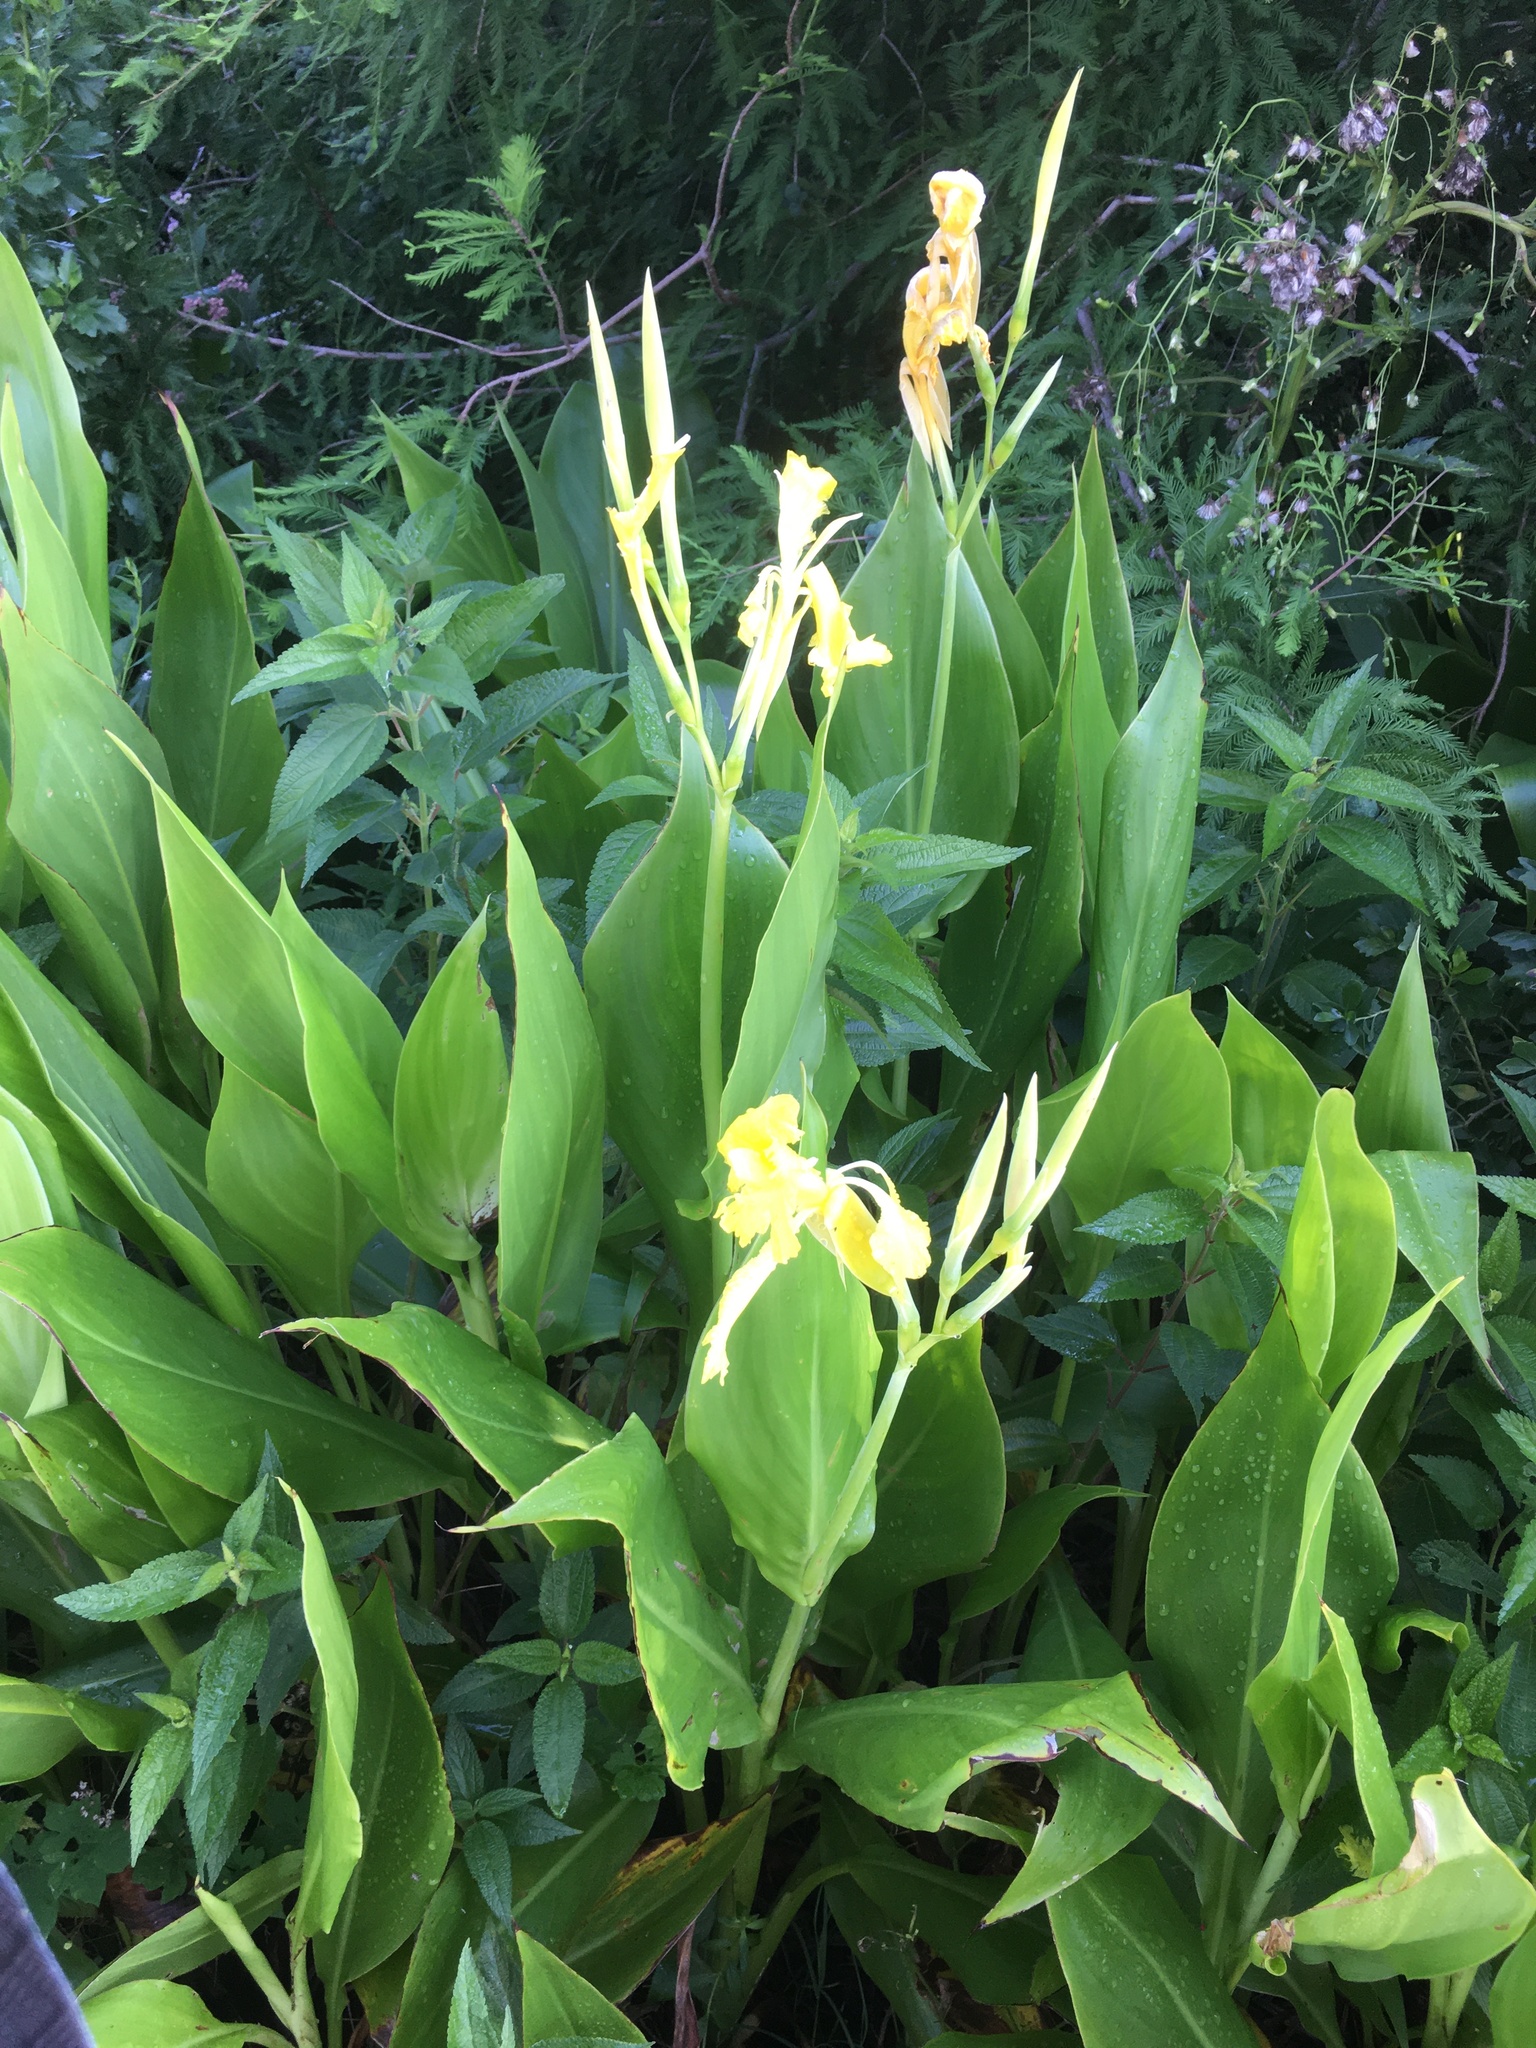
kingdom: Plantae
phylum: Tracheophyta
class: Liliopsida
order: Zingiberales
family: Cannaceae
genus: Canna
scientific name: Canna flaccida
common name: Bandana-of-the-everglades
